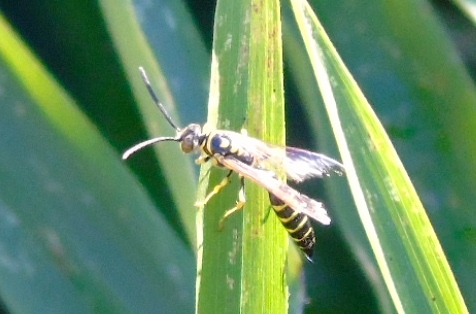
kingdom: Animalia
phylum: Arthropoda
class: Insecta
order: Hymenoptera
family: Tiphiidae
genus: Myzinum
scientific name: Myzinum
